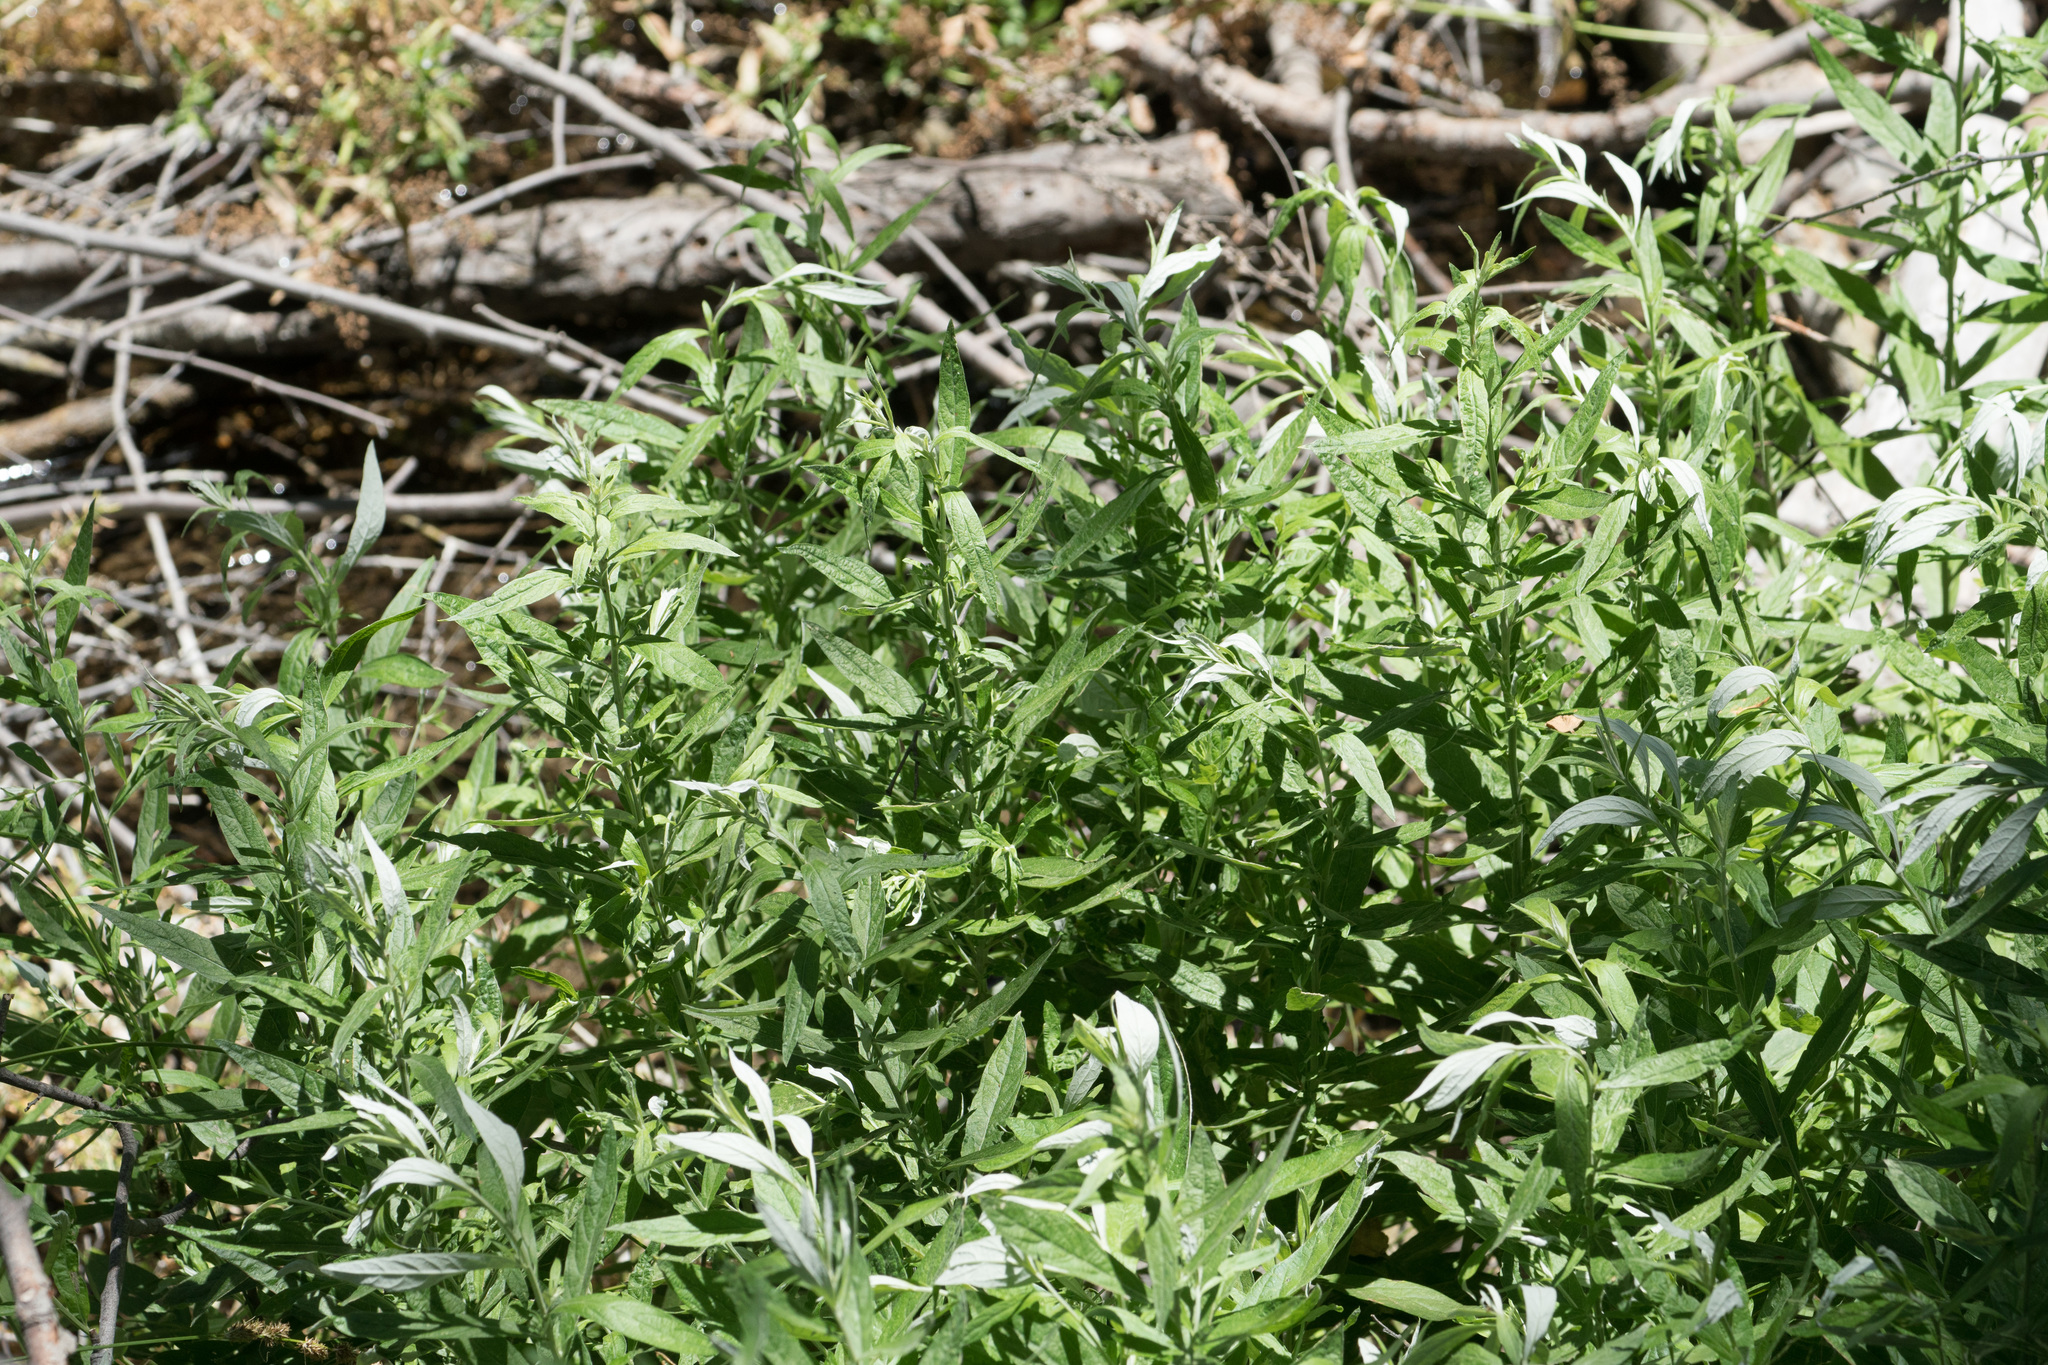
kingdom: Plantae
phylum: Tracheophyta
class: Magnoliopsida
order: Asterales
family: Asteraceae
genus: Artemisia
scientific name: Artemisia douglasiana
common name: Northwest mugwort
